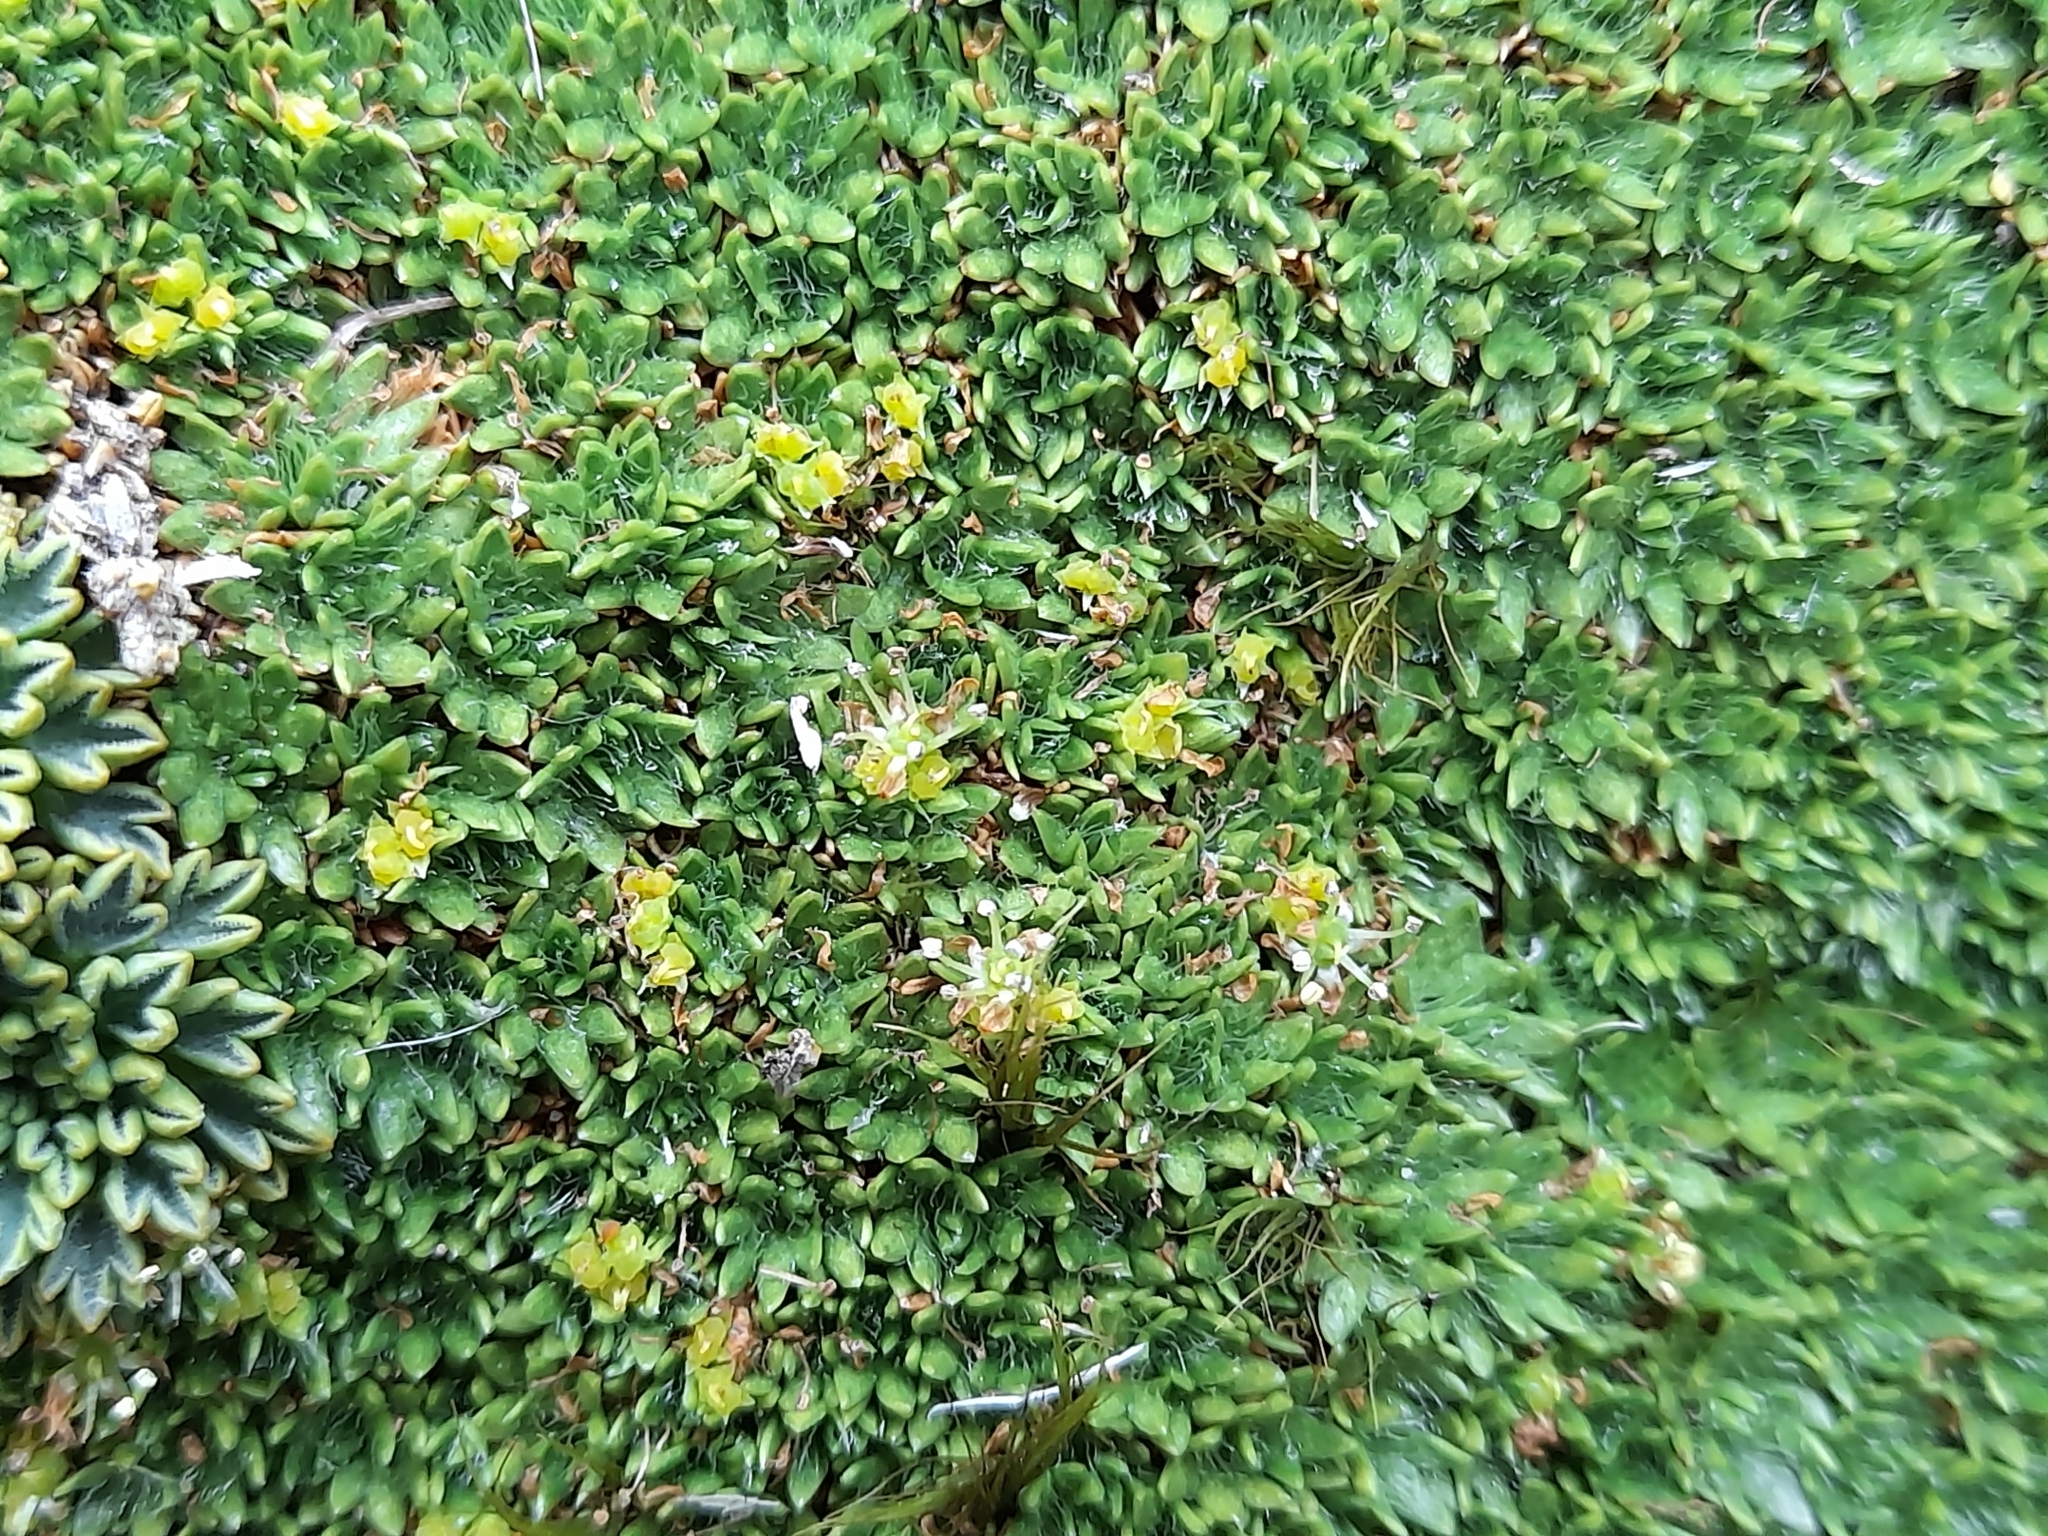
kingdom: Plantae
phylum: Tracheophyta
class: Magnoliopsida
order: Apiales
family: Apiaceae
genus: Azorella
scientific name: Azorella selago
